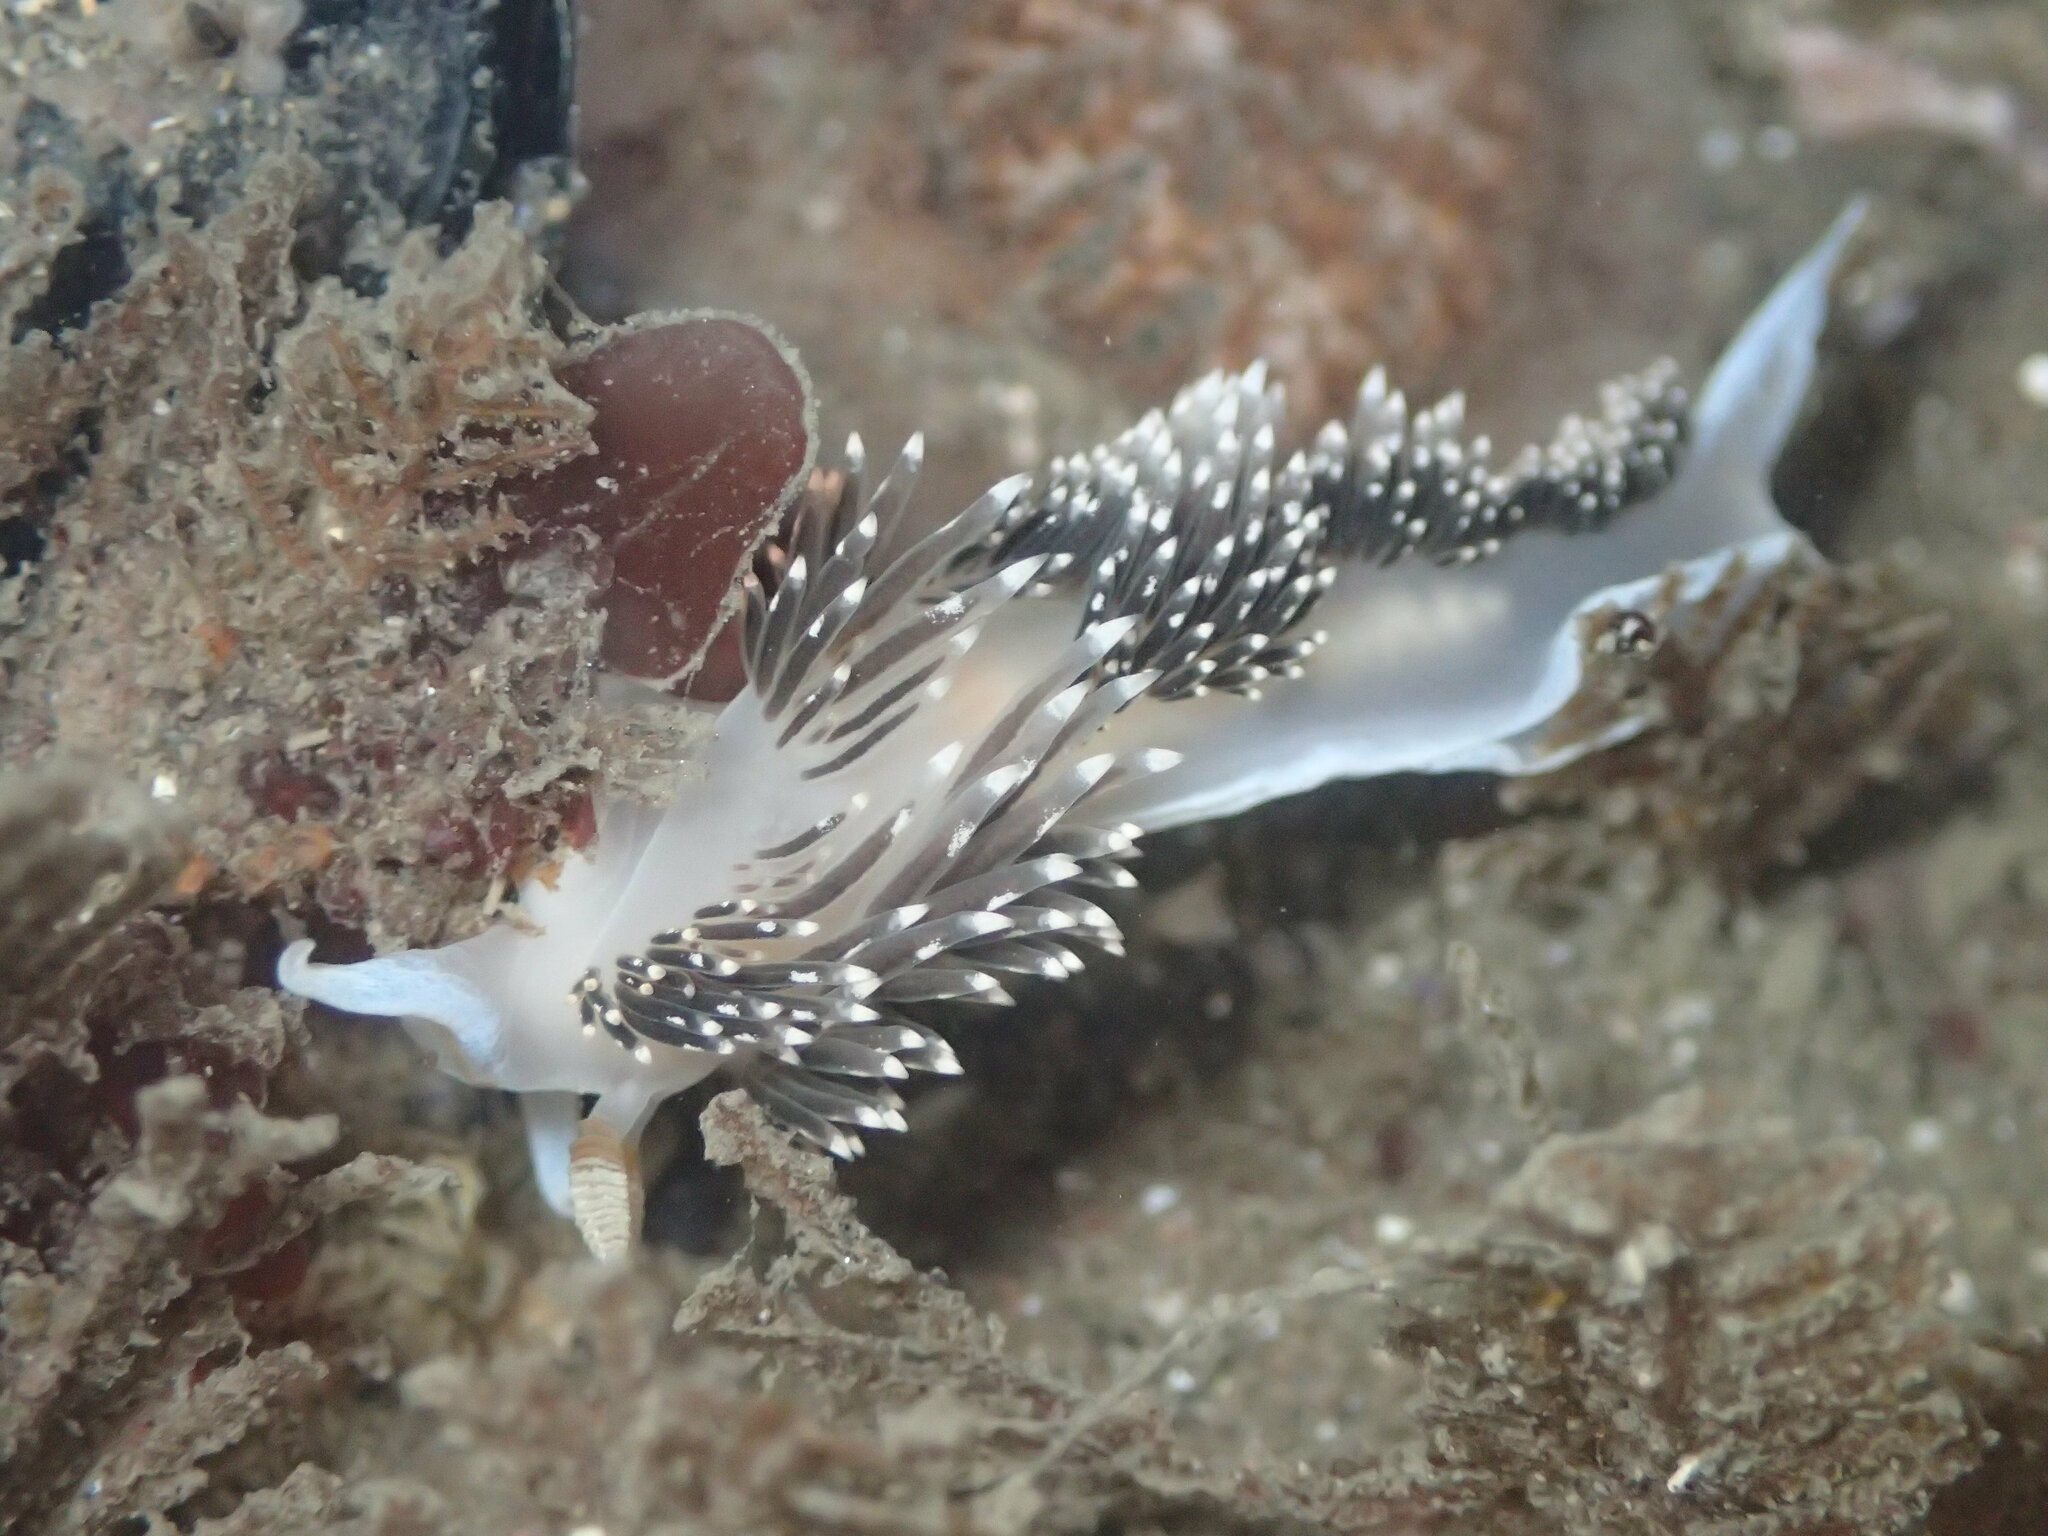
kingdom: Animalia
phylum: Mollusca
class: Gastropoda
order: Nudibranchia
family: Facelinidae
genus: Phidiana
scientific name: Phidiana hiltoni
